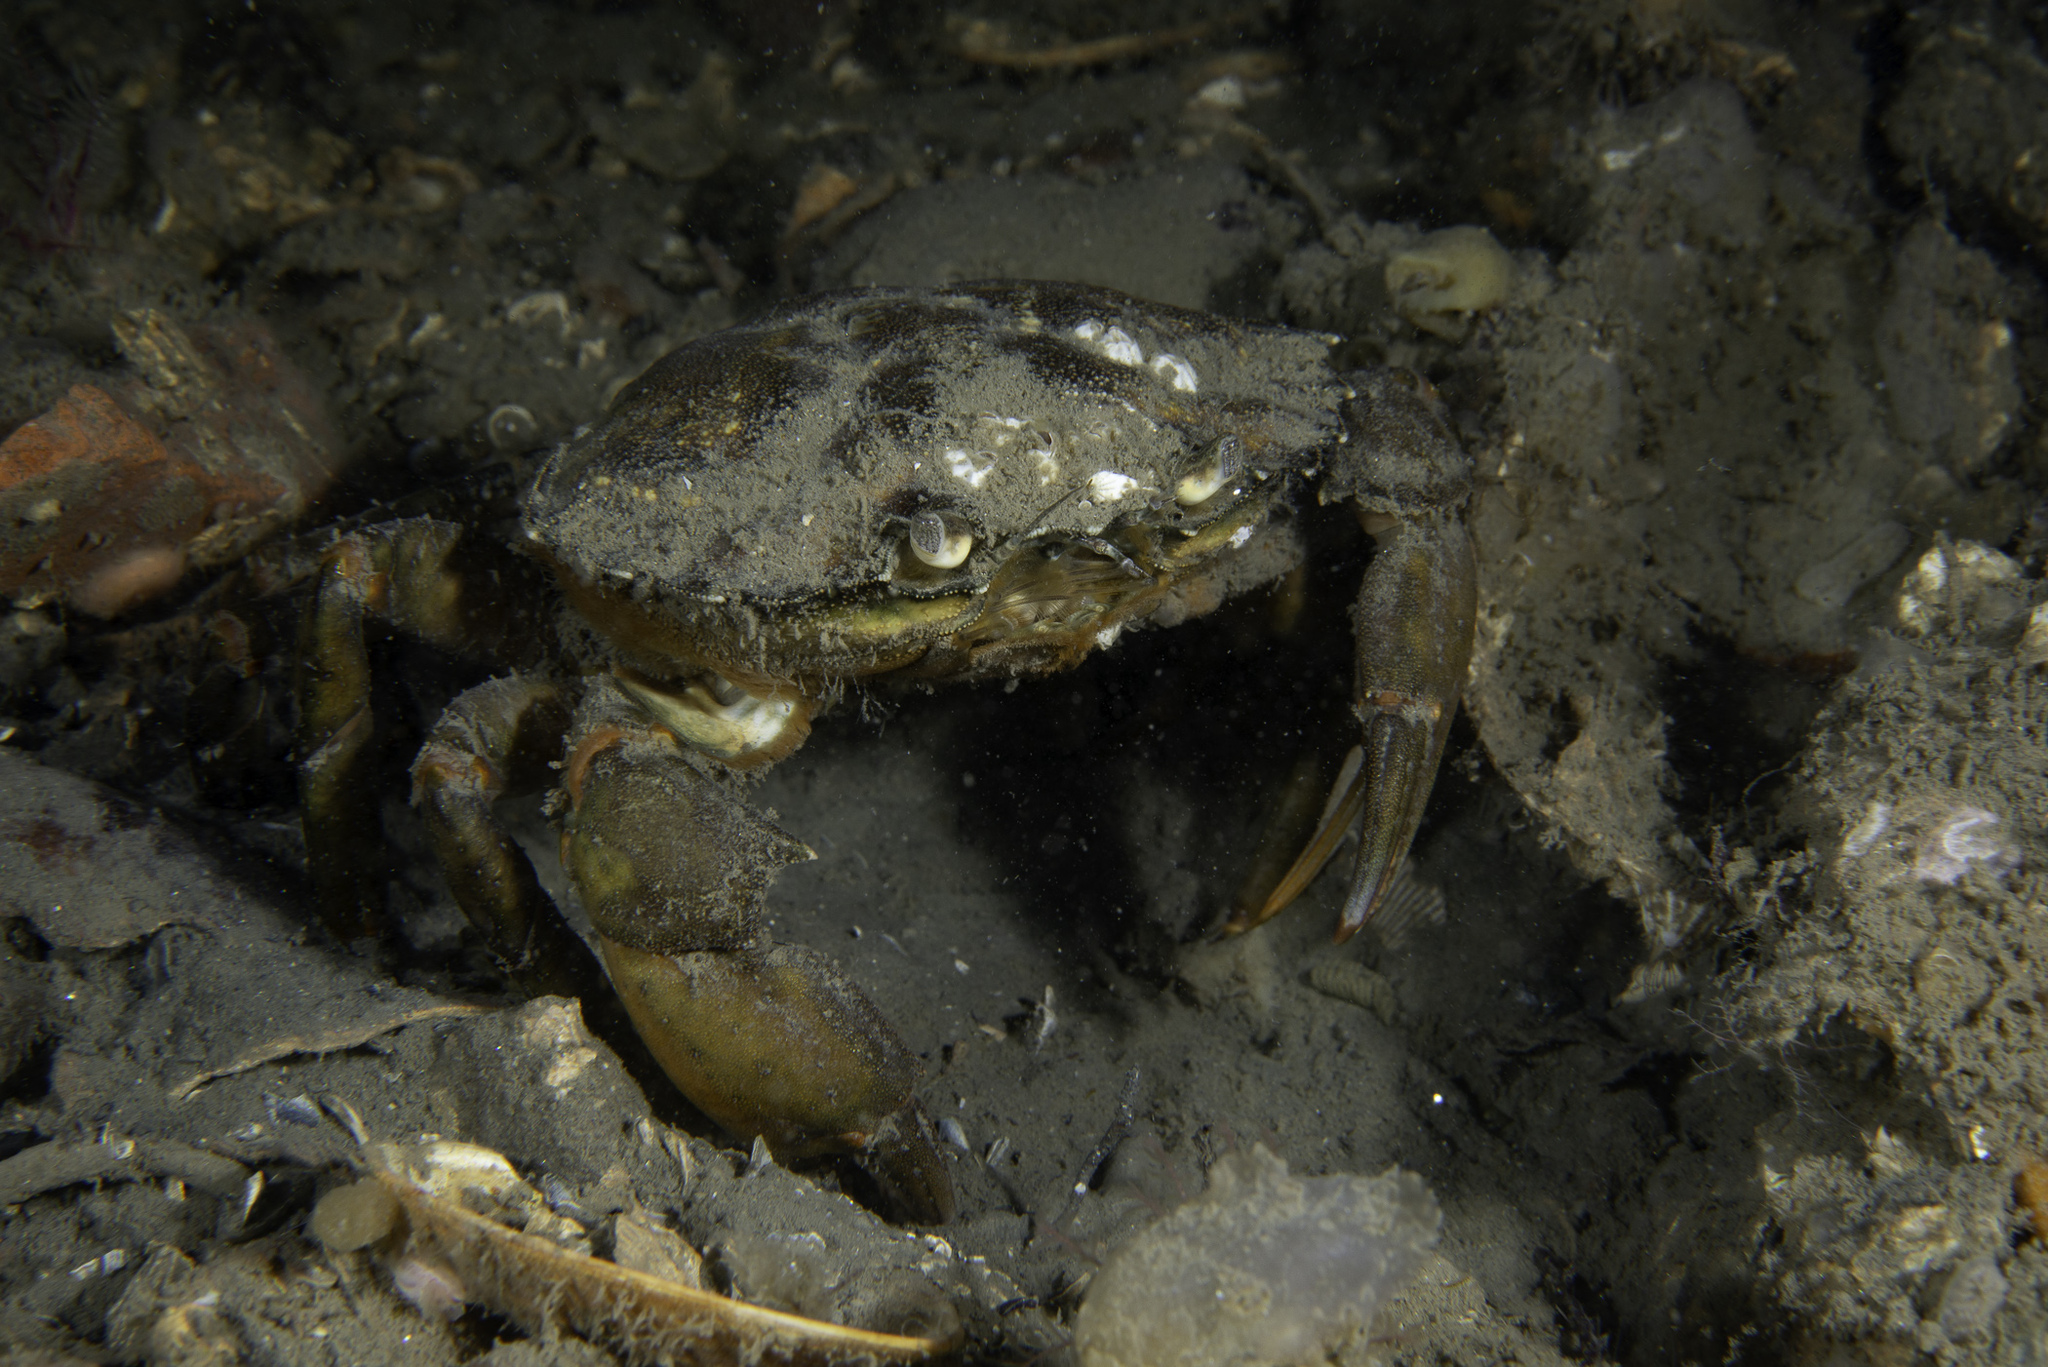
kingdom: Animalia
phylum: Arthropoda
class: Malacostraca
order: Decapoda
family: Carcinidae
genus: Carcinus
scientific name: Carcinus maenas
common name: European green crab
